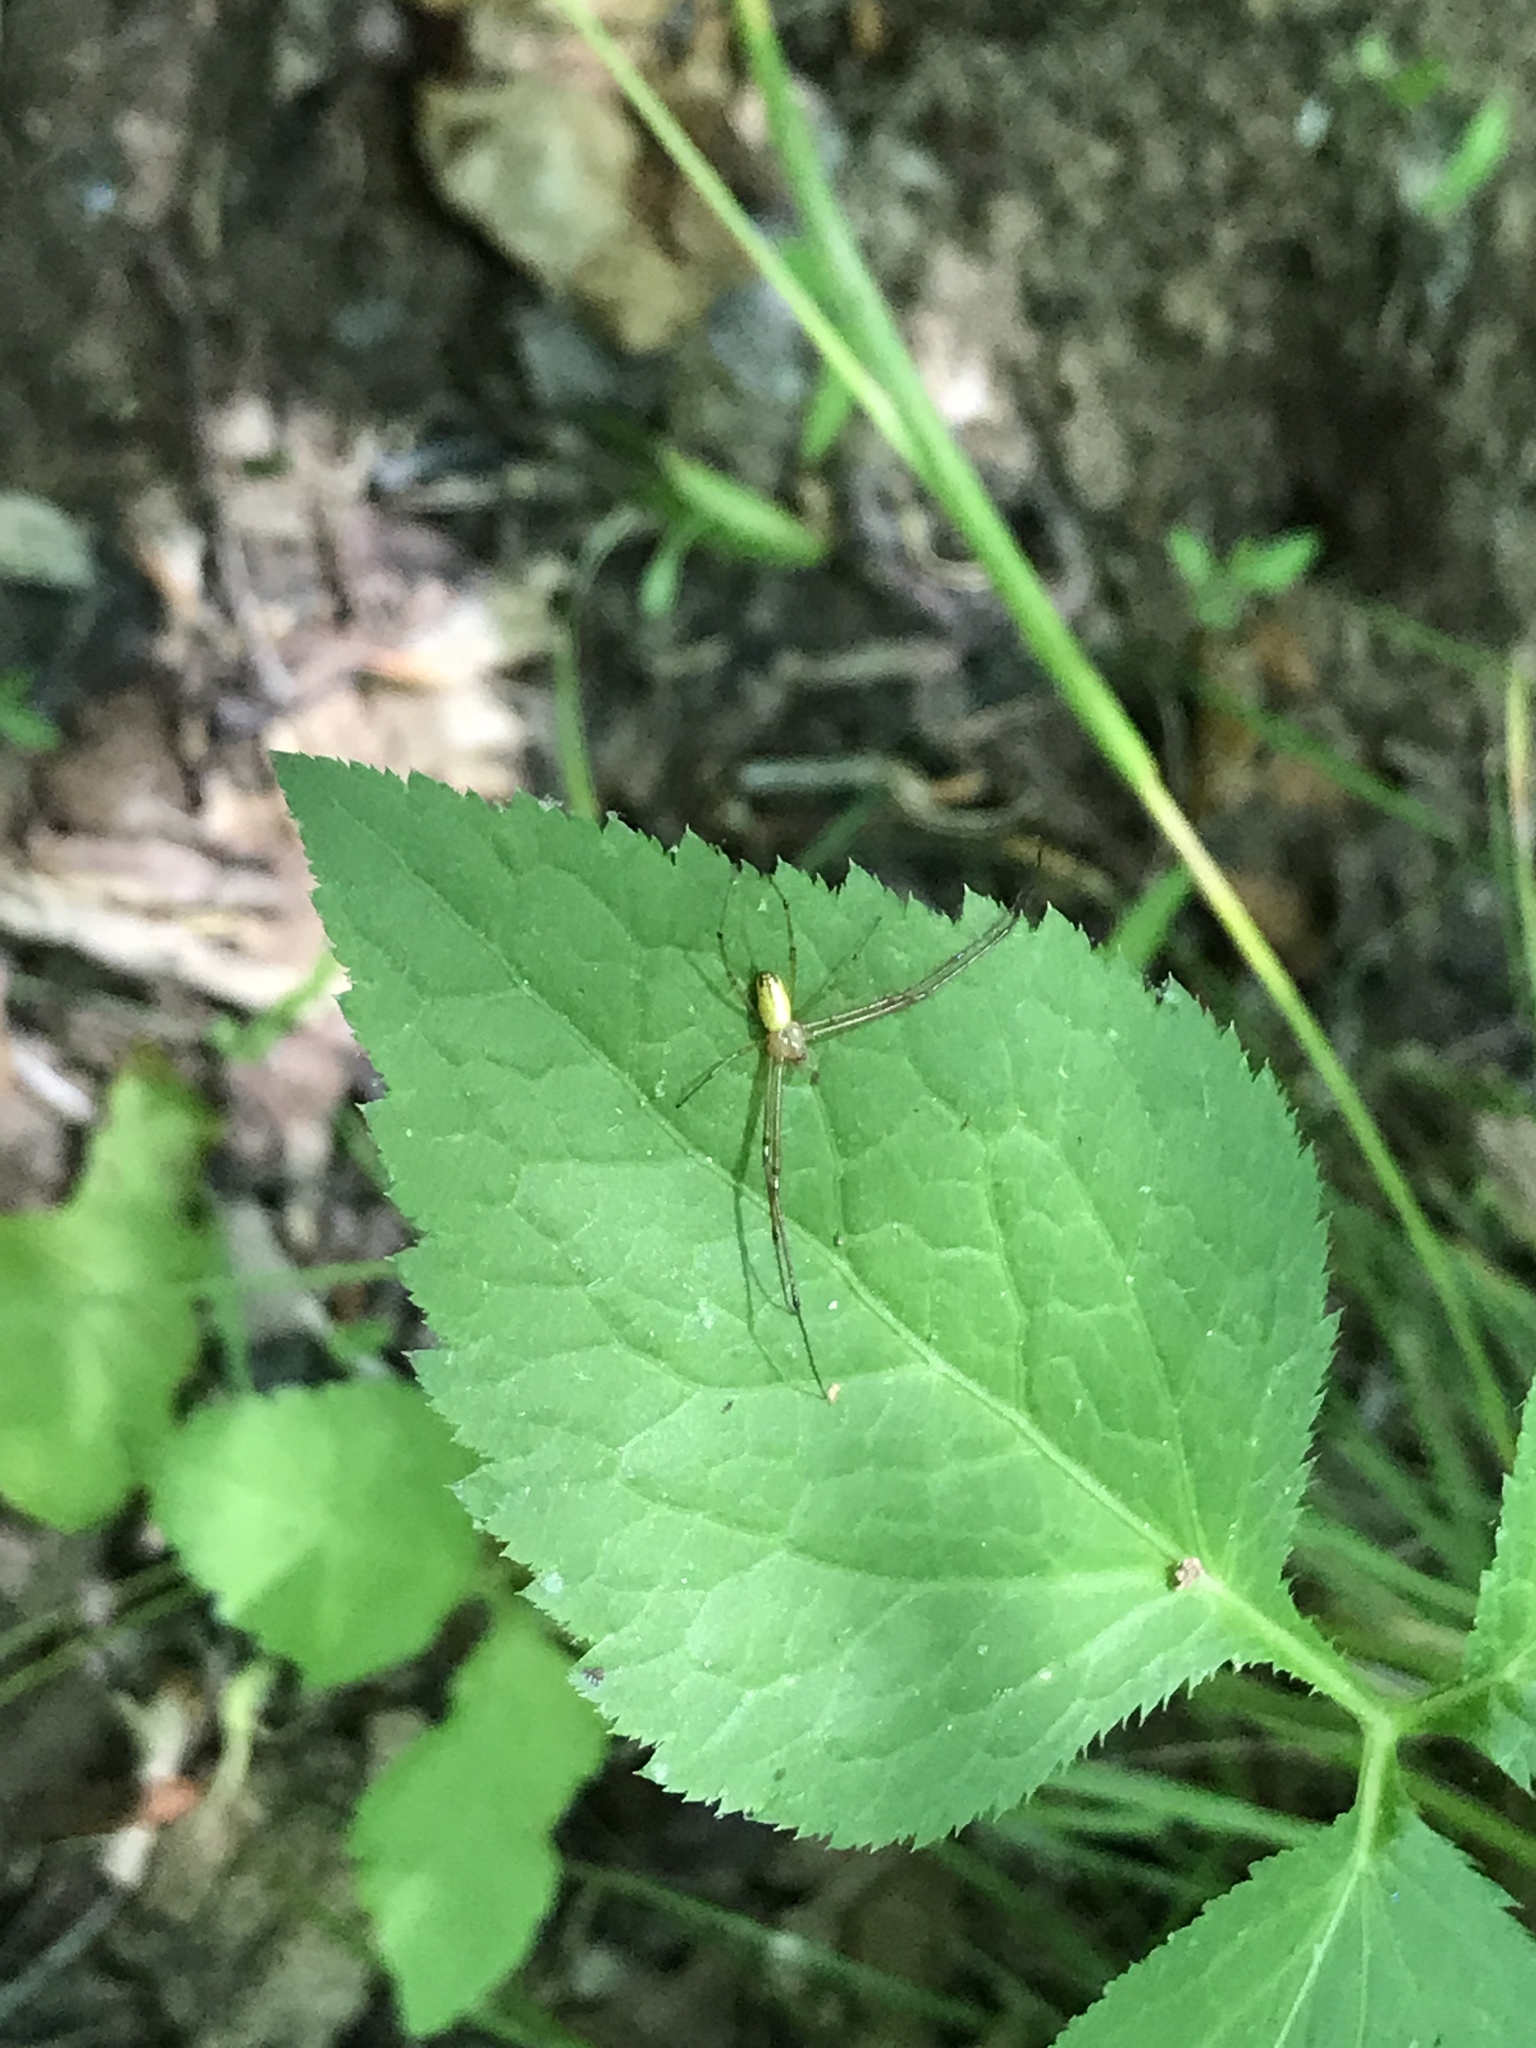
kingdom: Animalia
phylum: Arthropoda
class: Arachnida
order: Araneae
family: Tetragnathidae
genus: Leucauge
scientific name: Leucauge venusta
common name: Longjawed orb weavers
